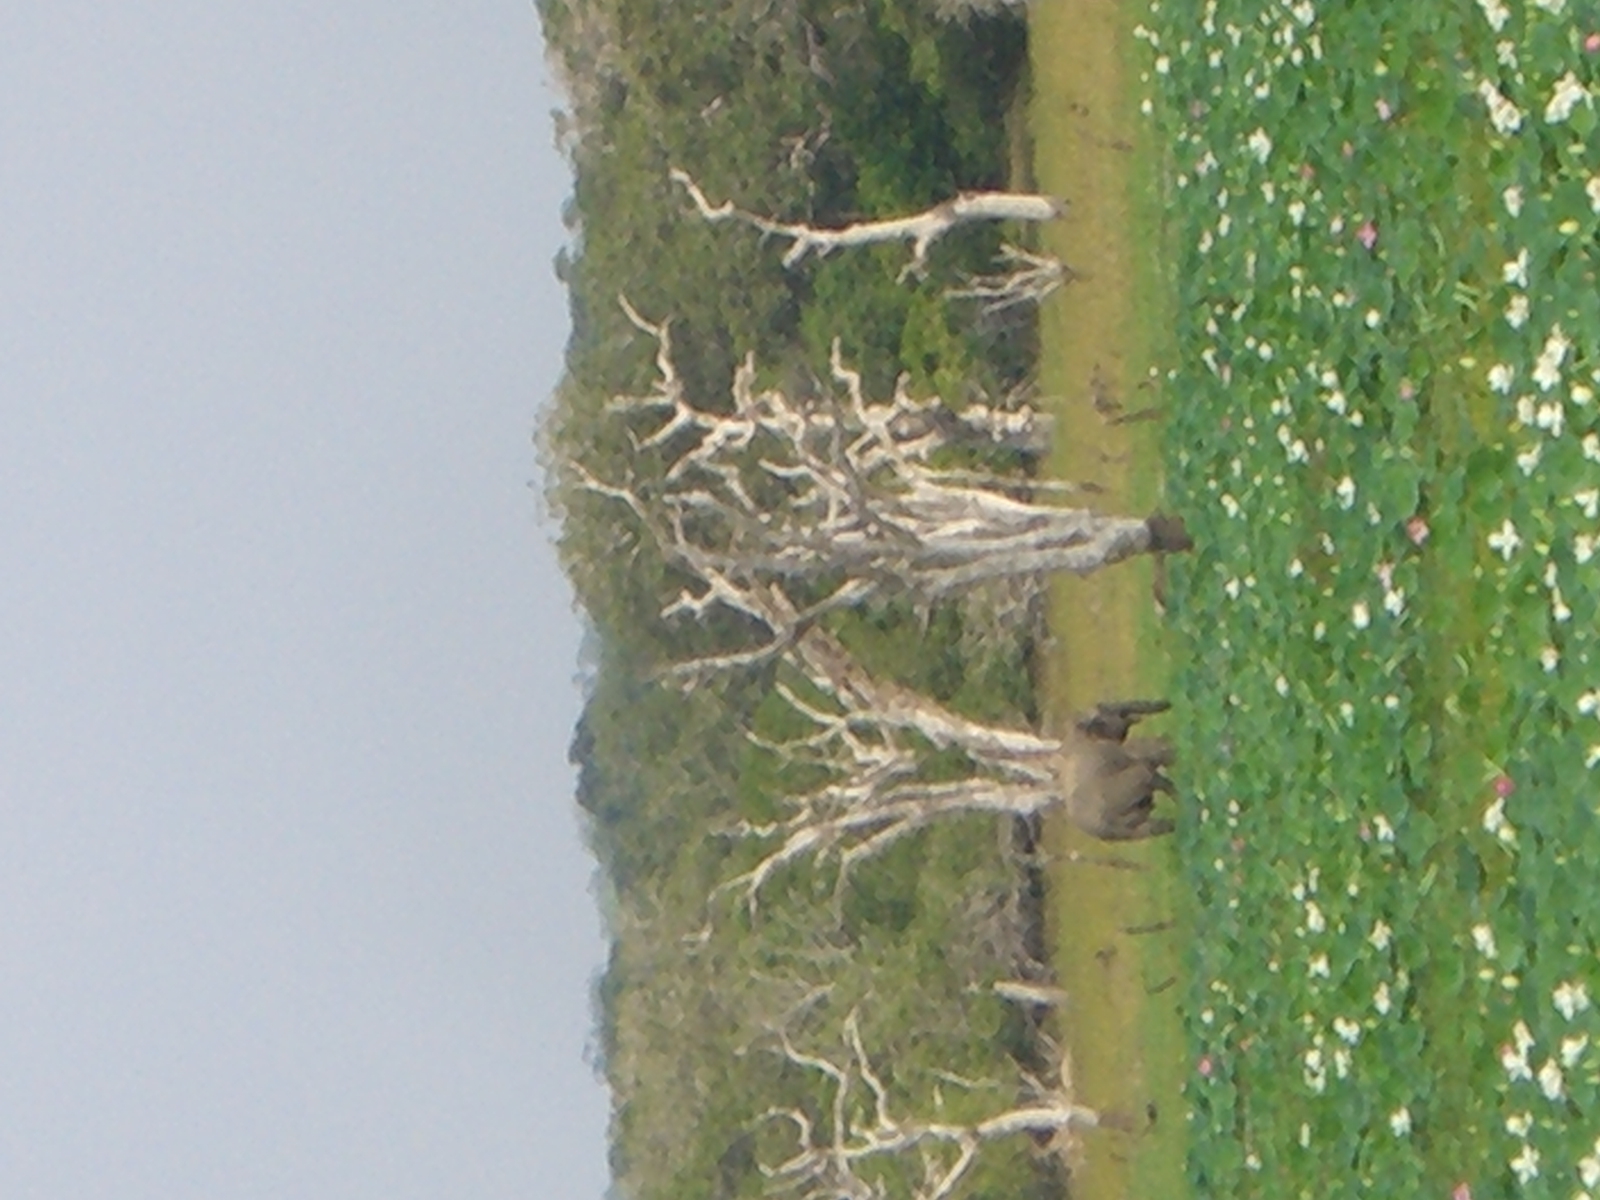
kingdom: Animalia
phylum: Chordata
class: Mammalia
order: Proboscidea
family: Elephantidae
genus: Elephas
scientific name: Elephas maximus
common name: Asian elephant
